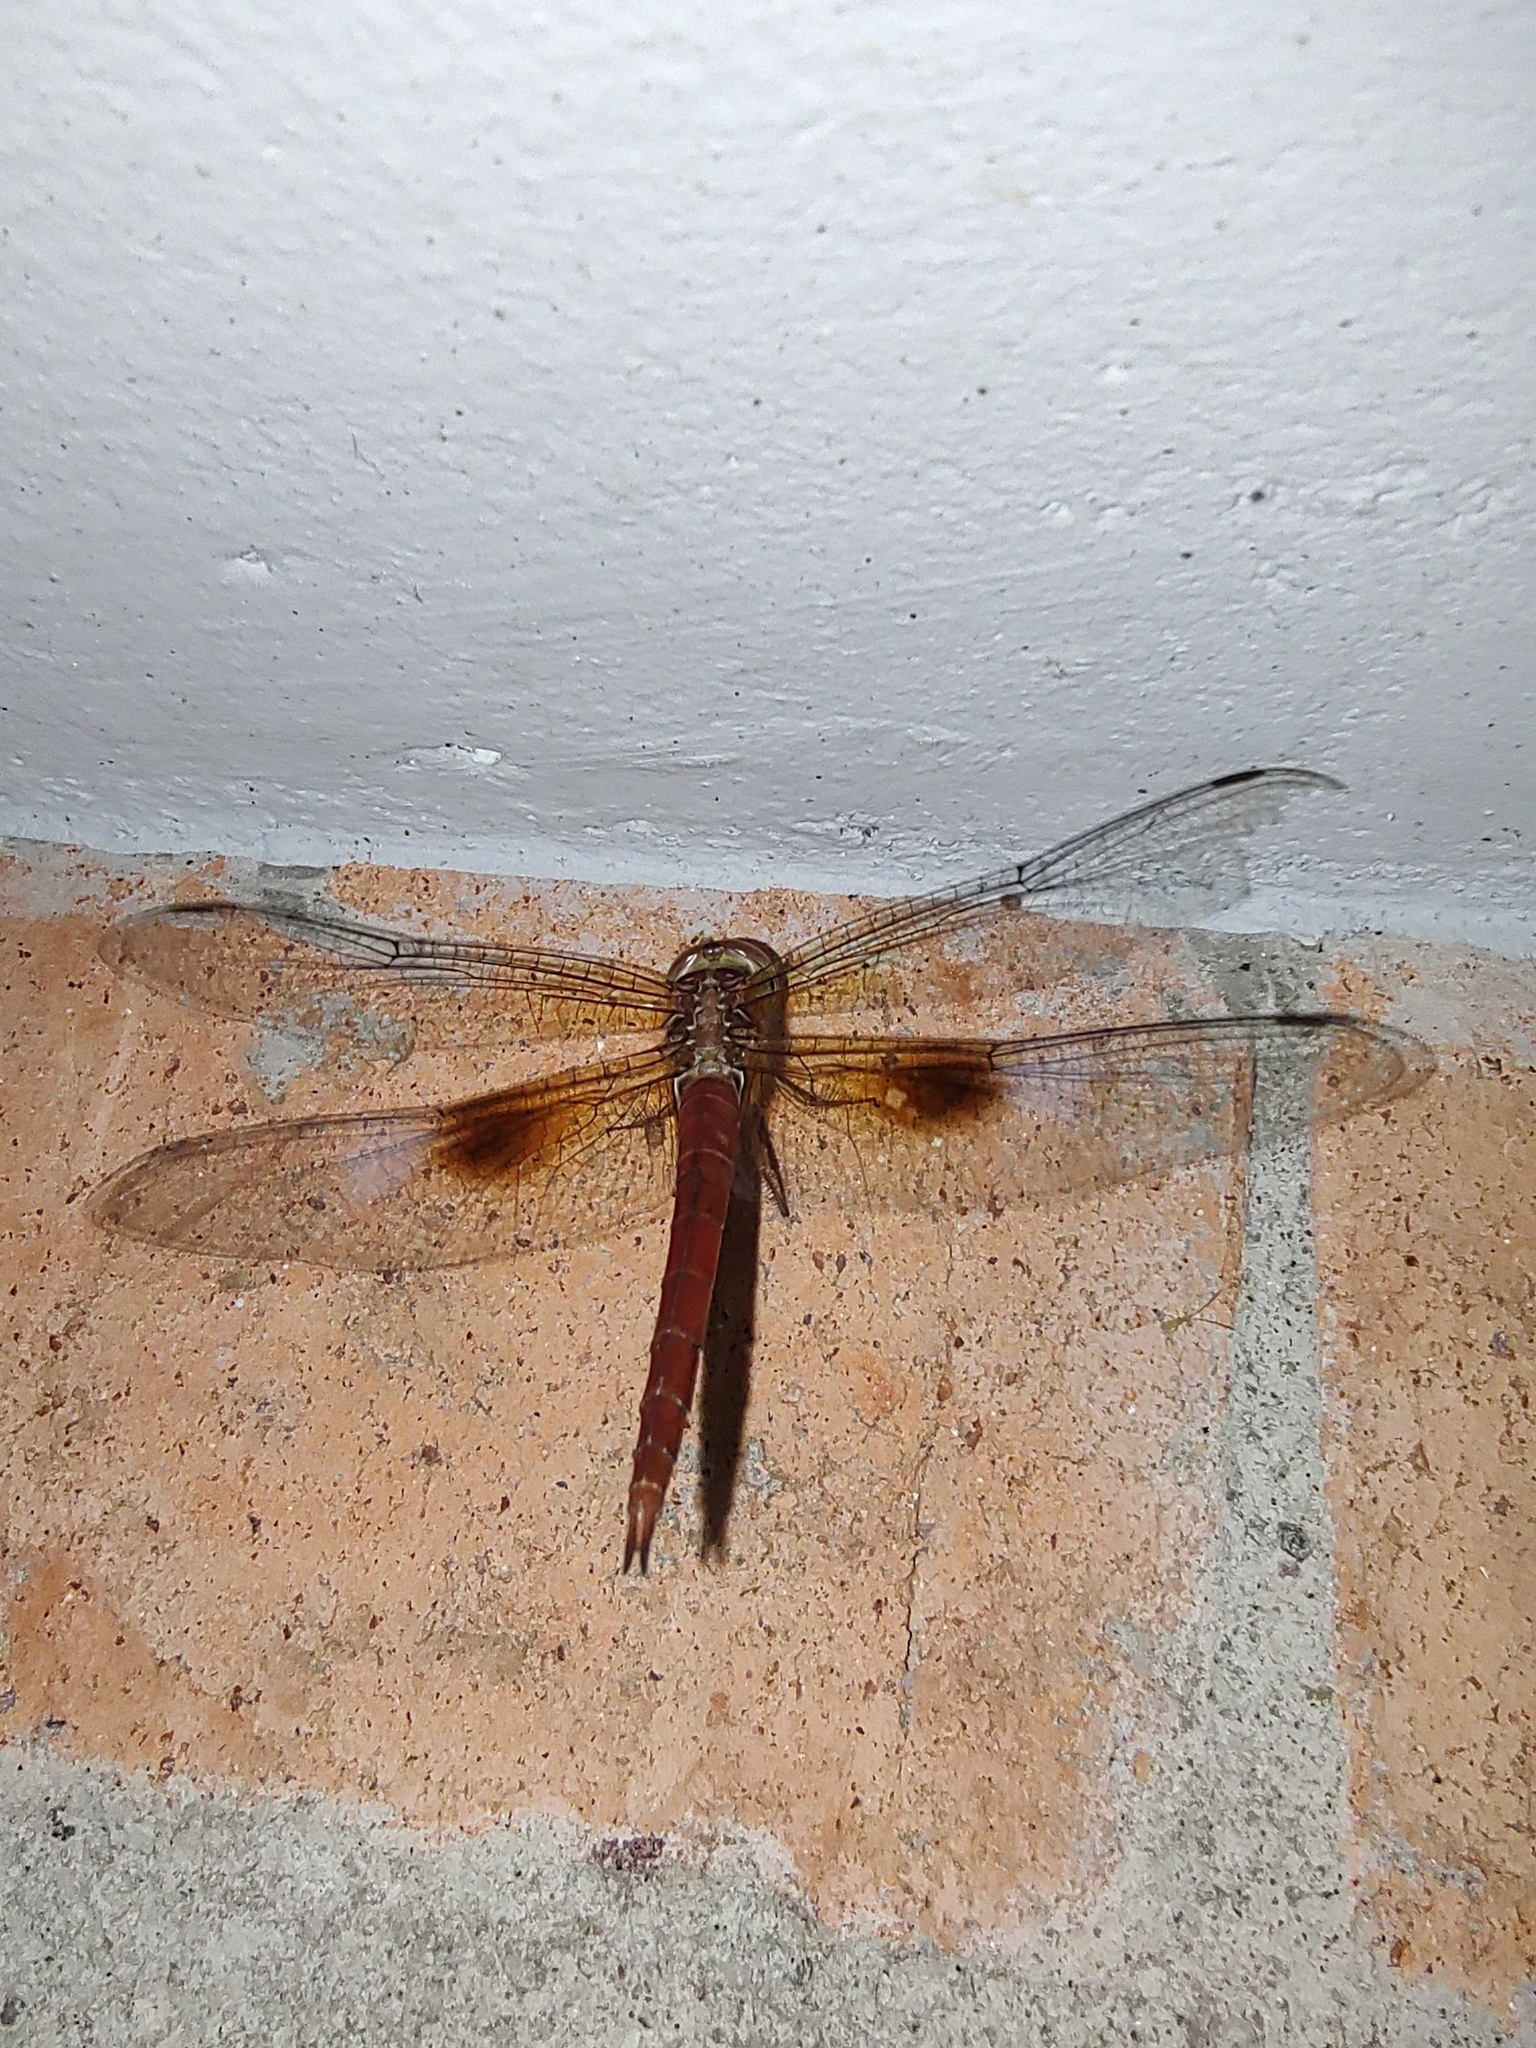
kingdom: Animalia
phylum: Arthropoda
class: Insecta
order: Odonata
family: Libellulidae
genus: Tholymis
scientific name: Tholymis tillarga
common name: Coral-tailed cloud wing
